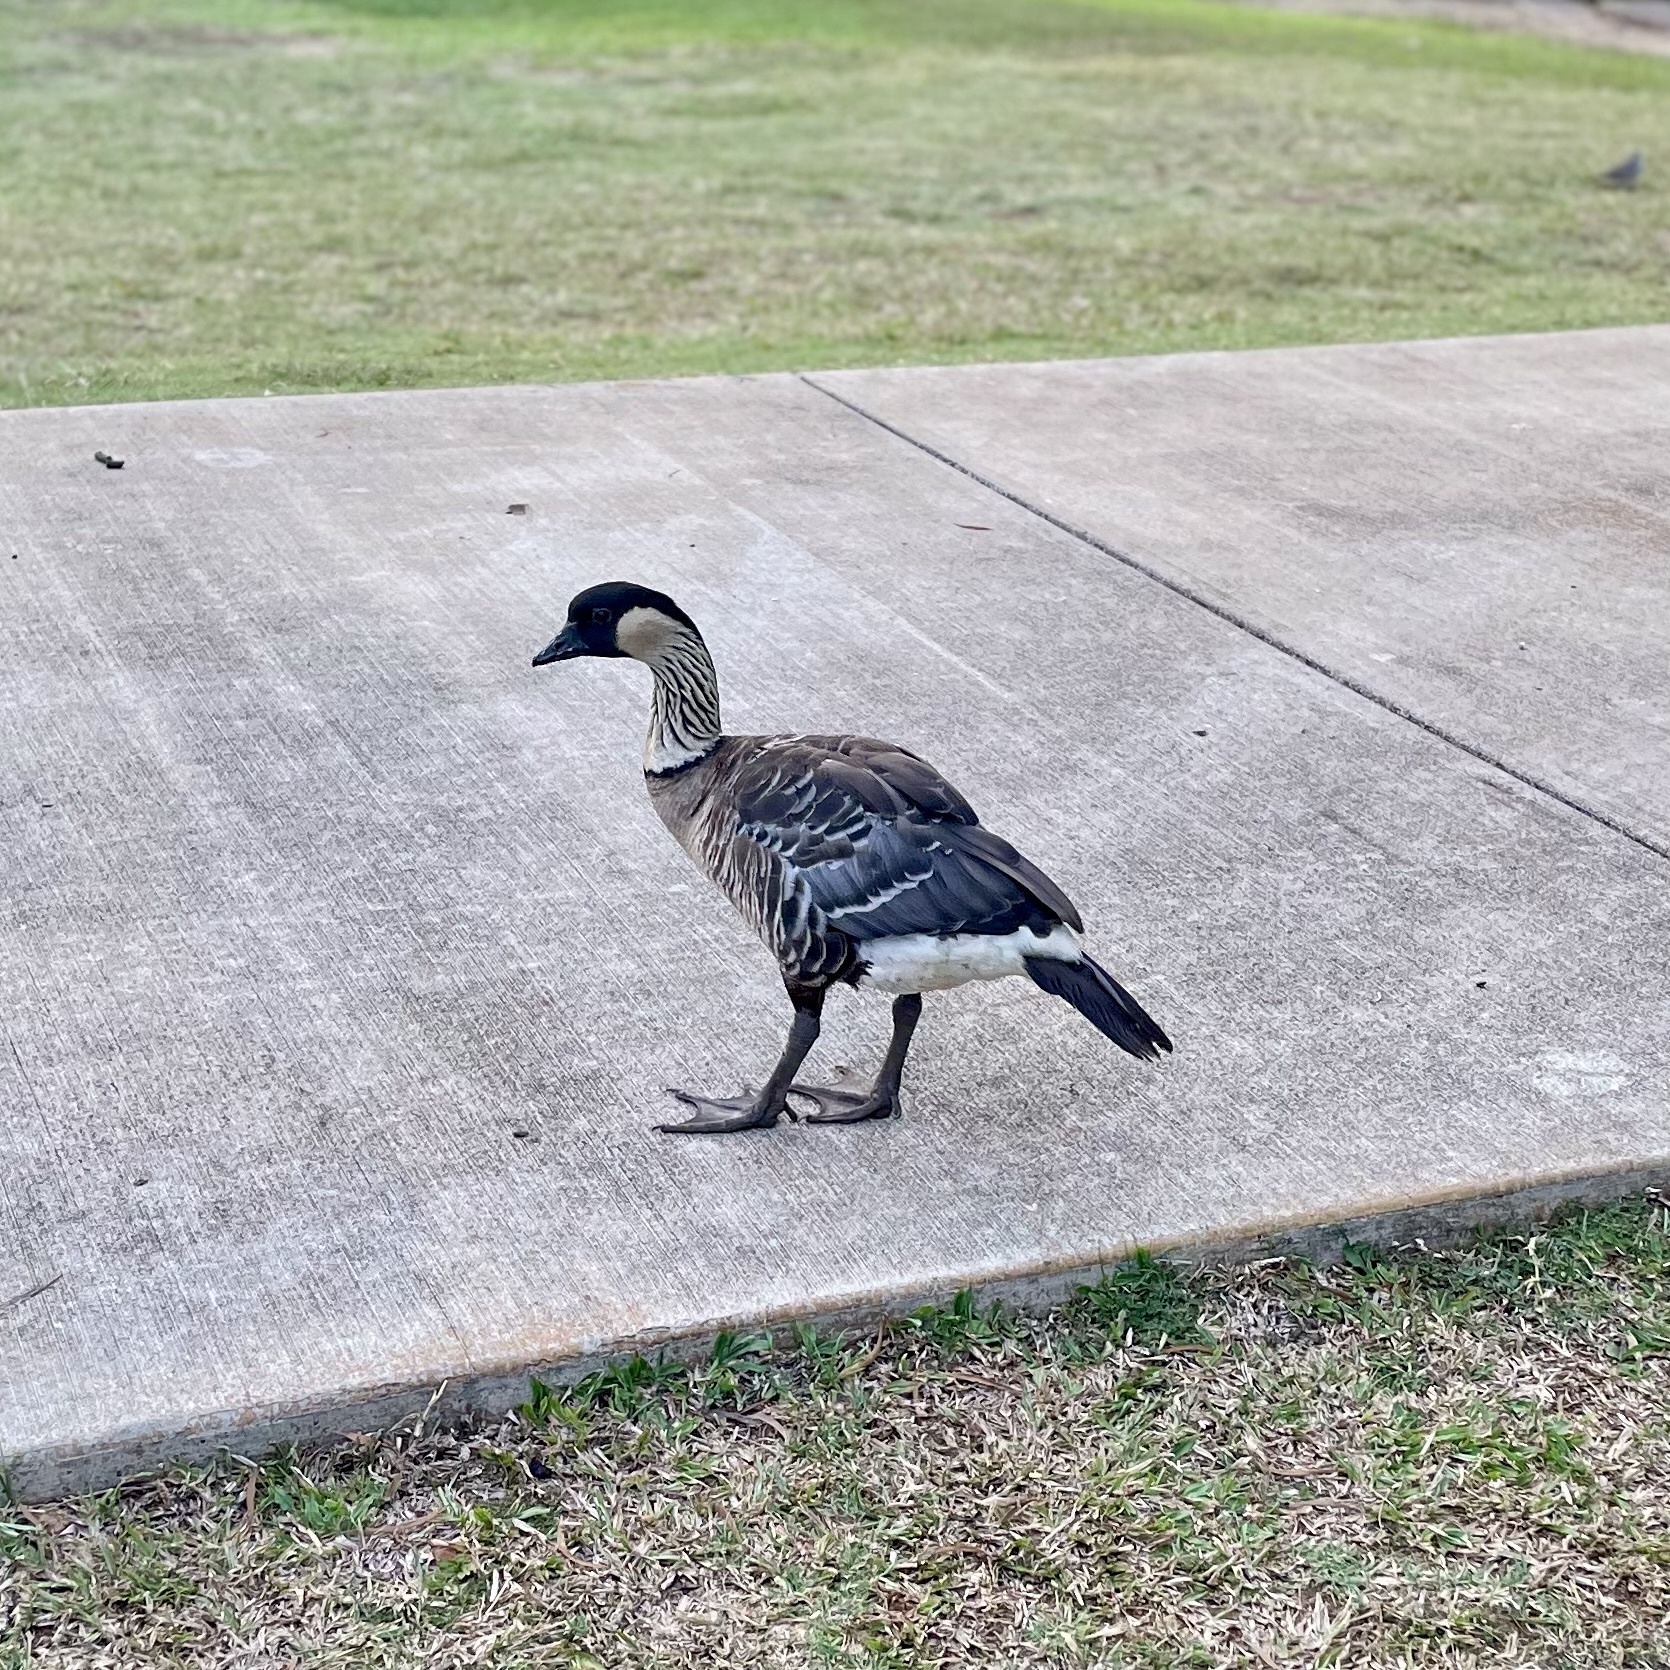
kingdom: Animalia
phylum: Chordata
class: Aves
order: Anseriformes
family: Anatidae
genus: Branta
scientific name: Branta sandvicensis
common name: Nene
